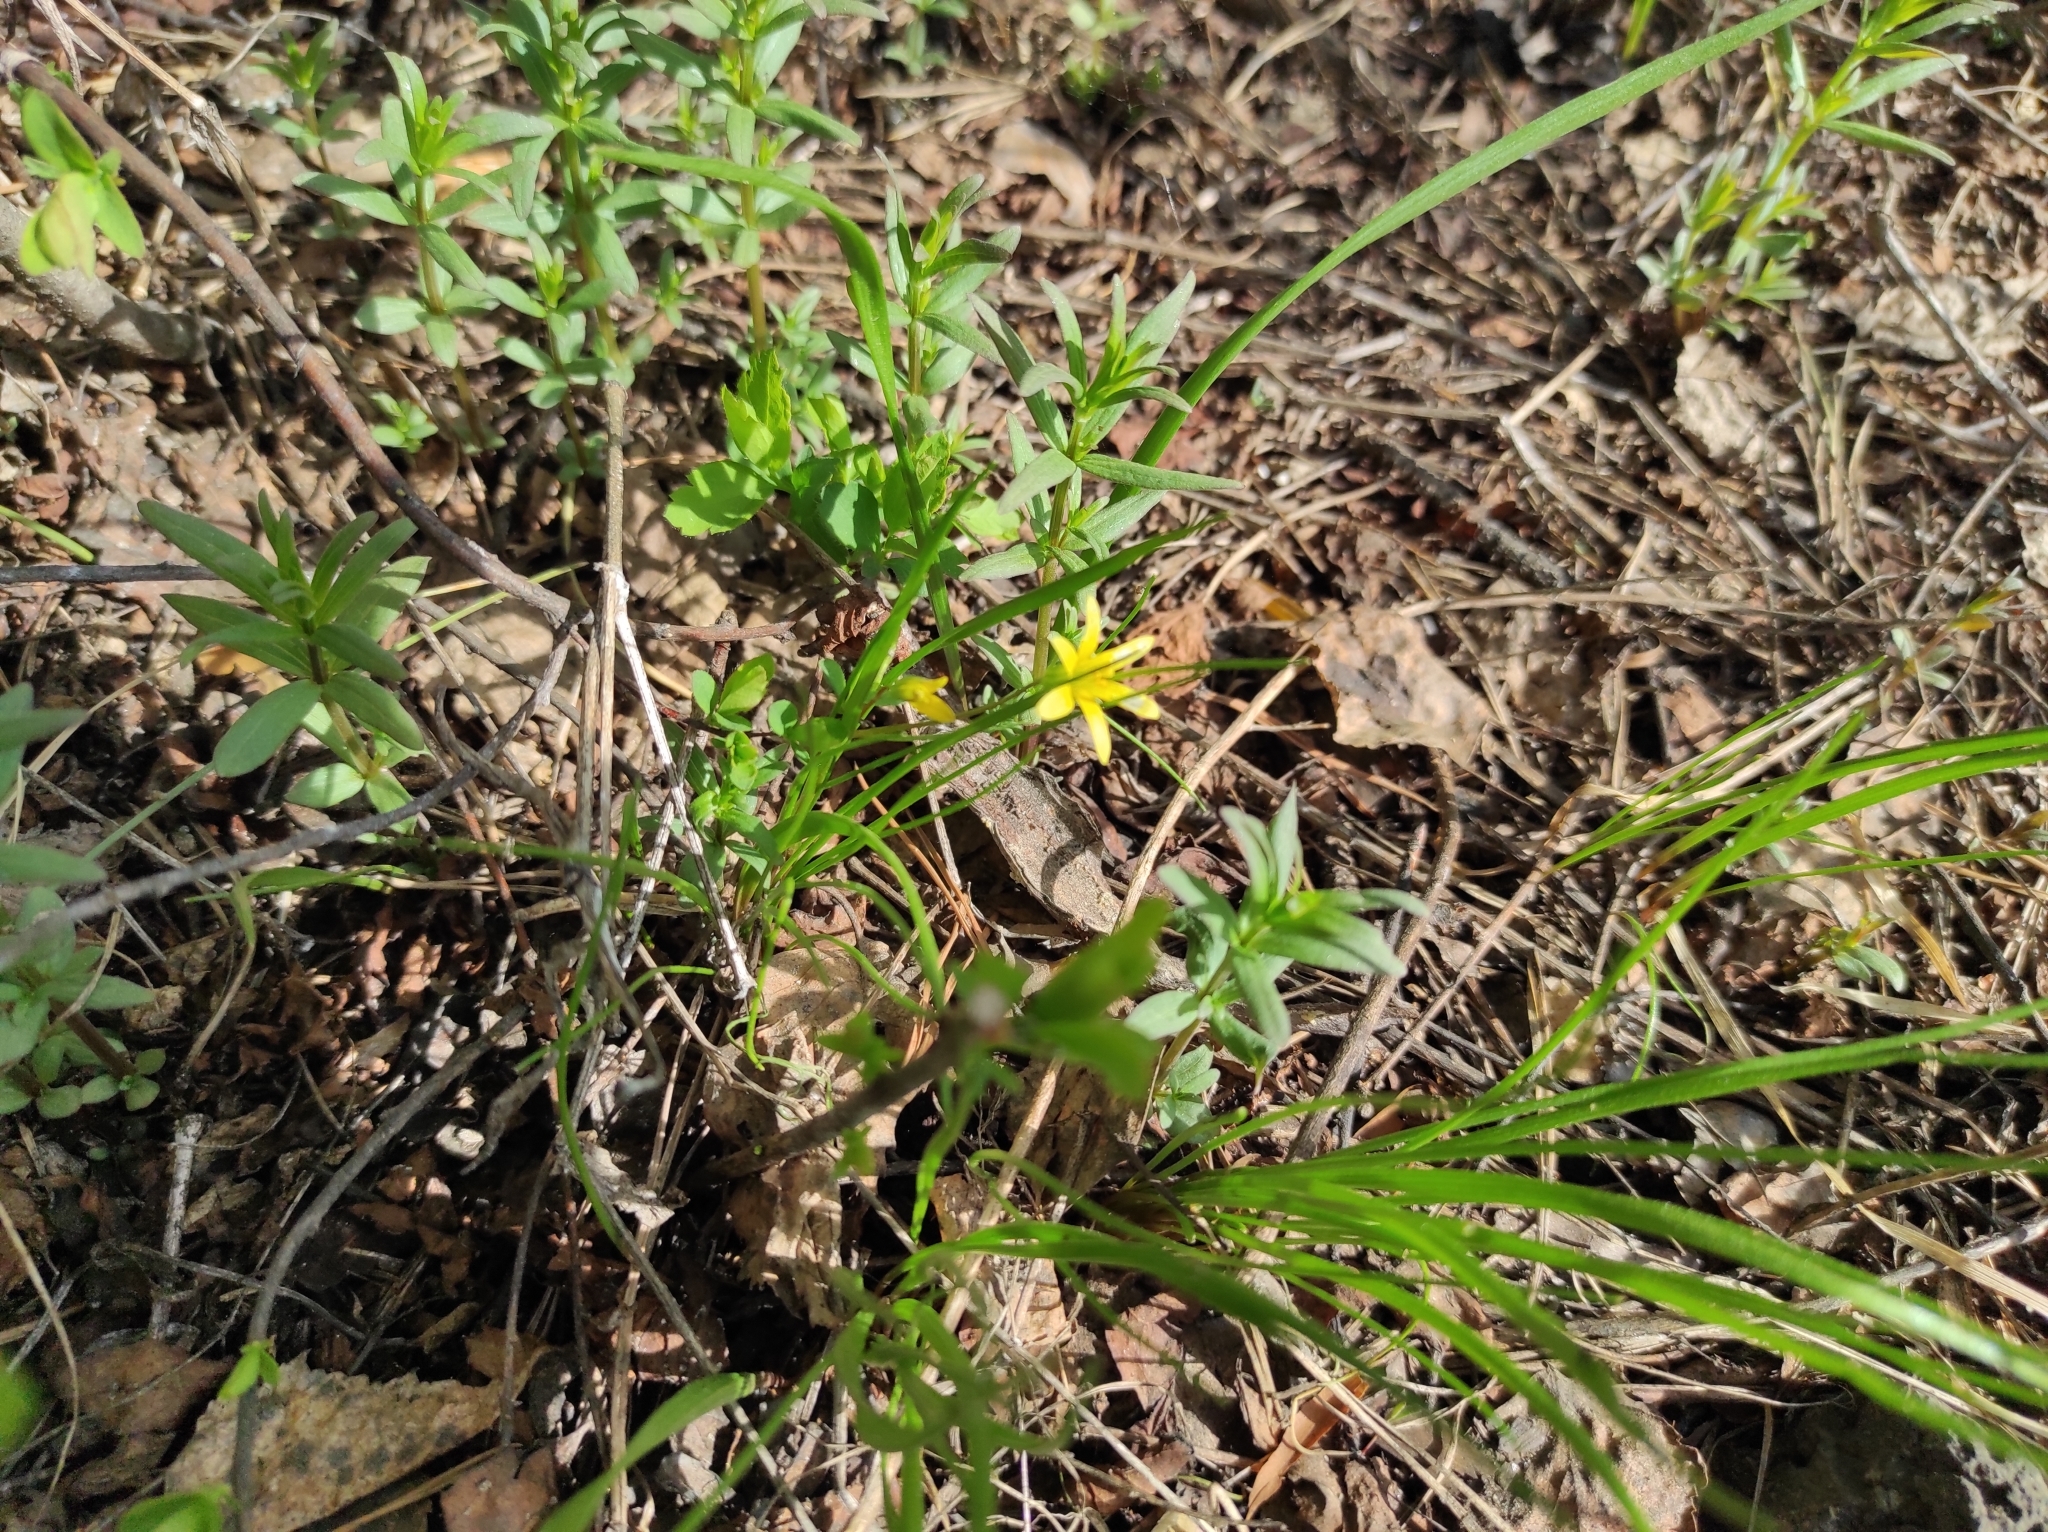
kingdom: Plantae
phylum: Tracheophyta
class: Magnoliopsida
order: Gentianales
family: Rubiaceae
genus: Galium
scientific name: Galium boreale
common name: Northern bedstraw
